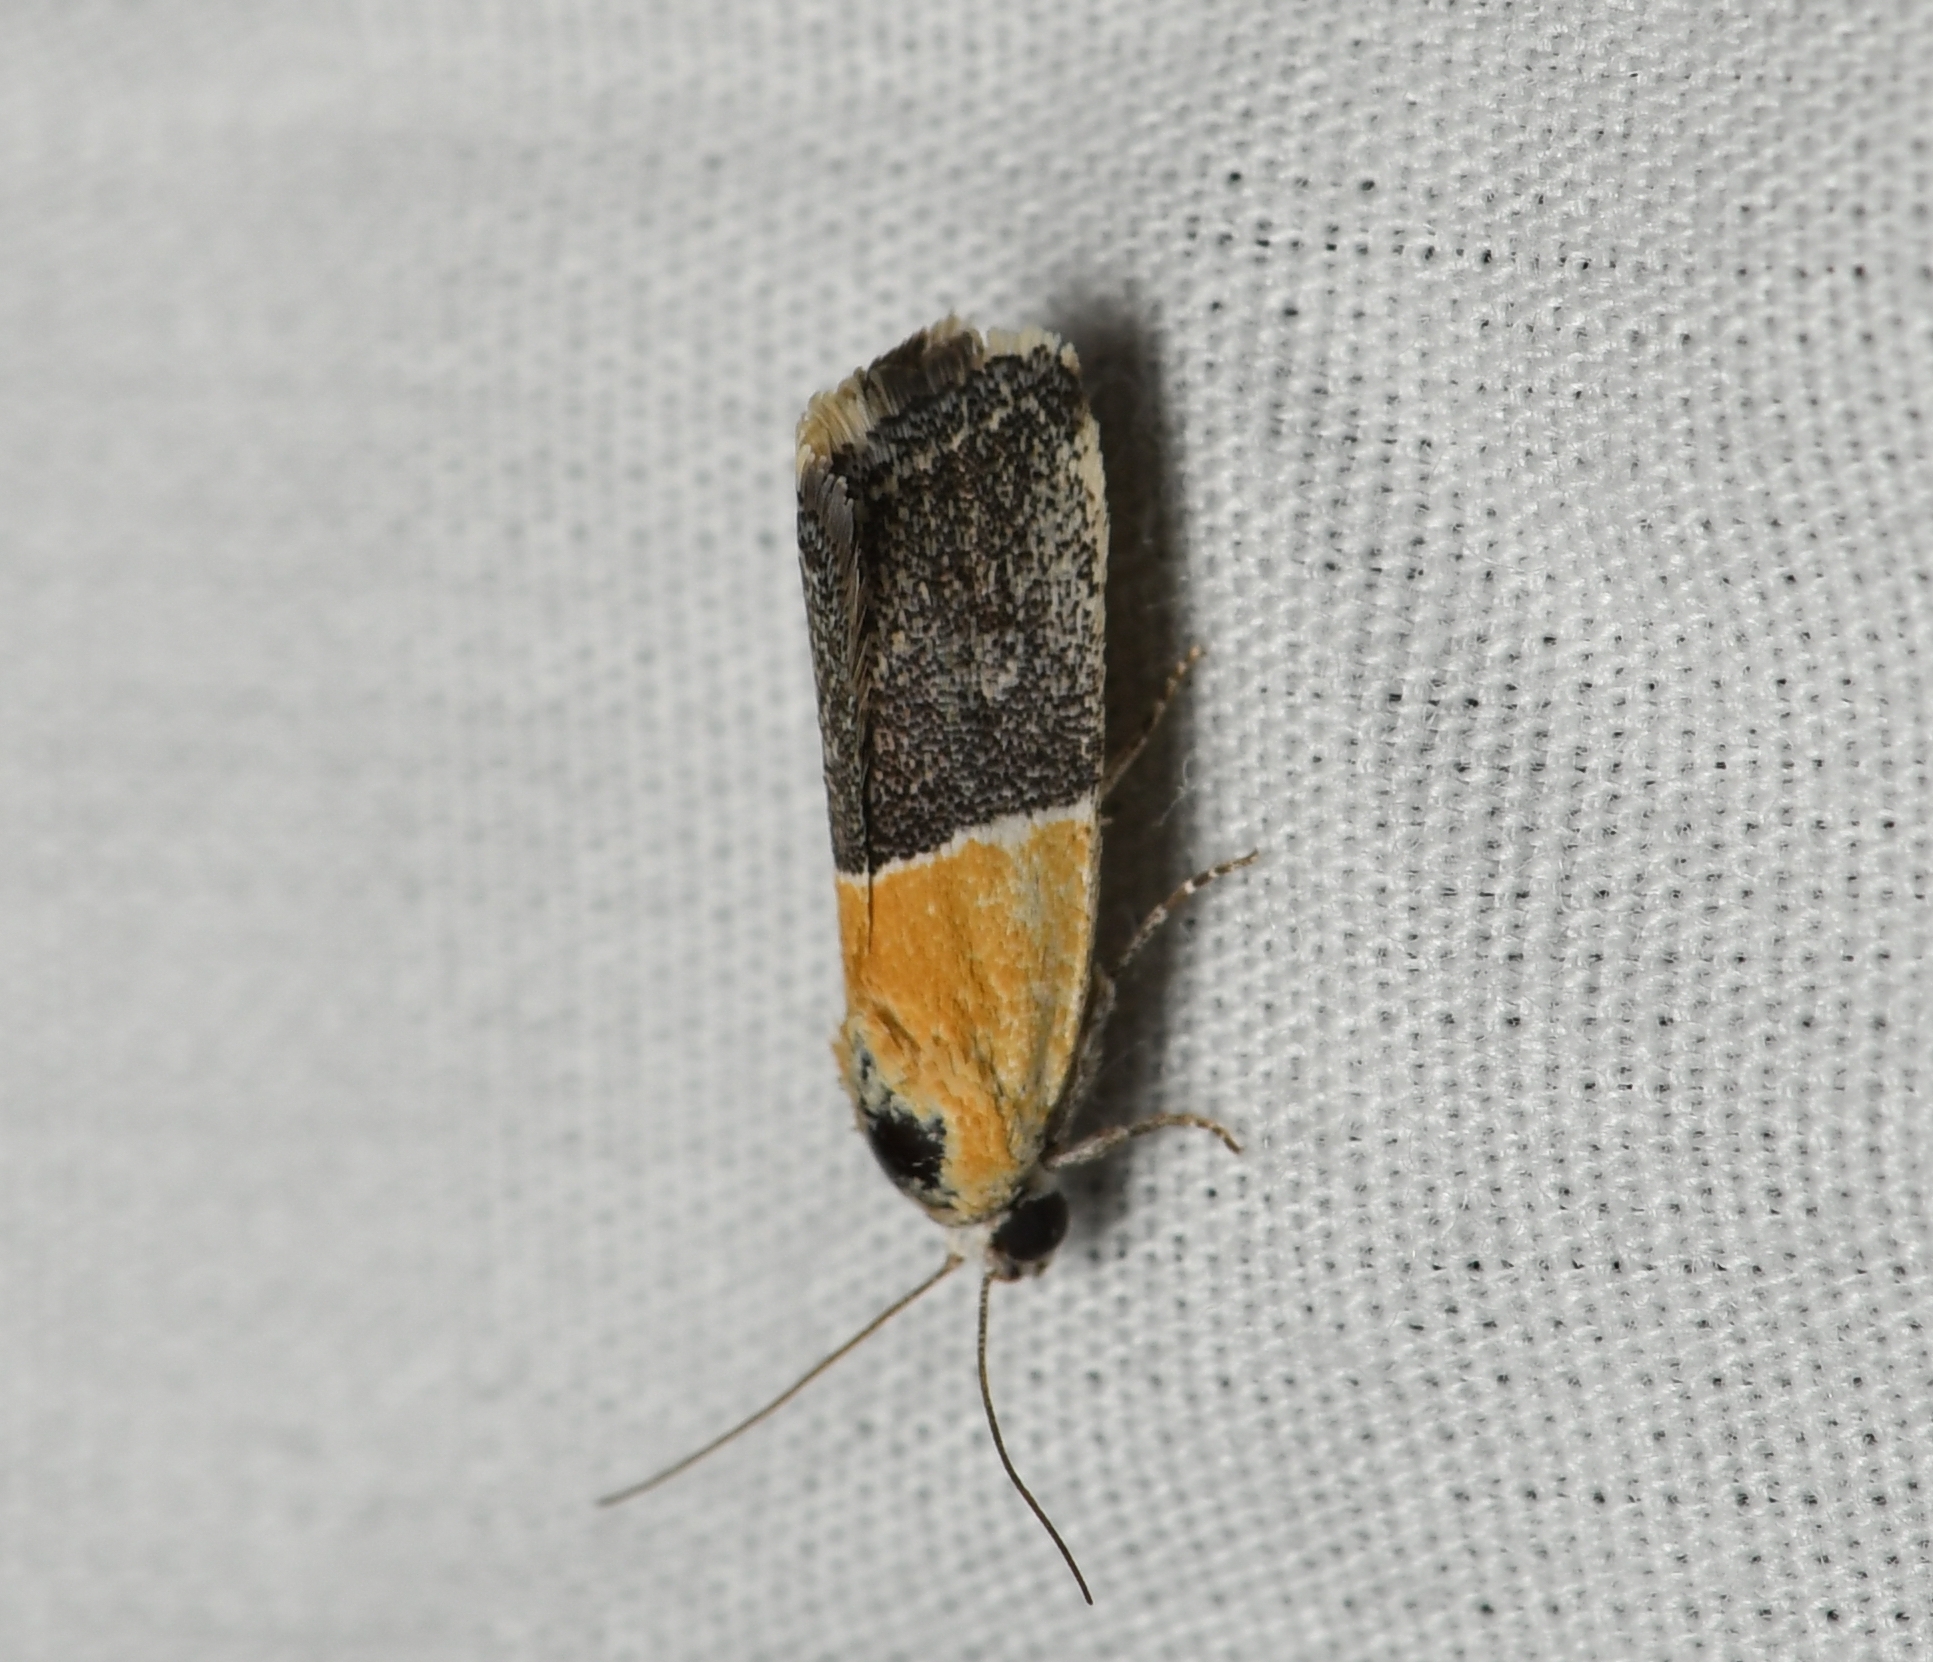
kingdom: Animalia
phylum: Arthropoda
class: Insecta
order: Lepidoptera
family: Noctuidae
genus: Acontia
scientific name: Acontia clausula
